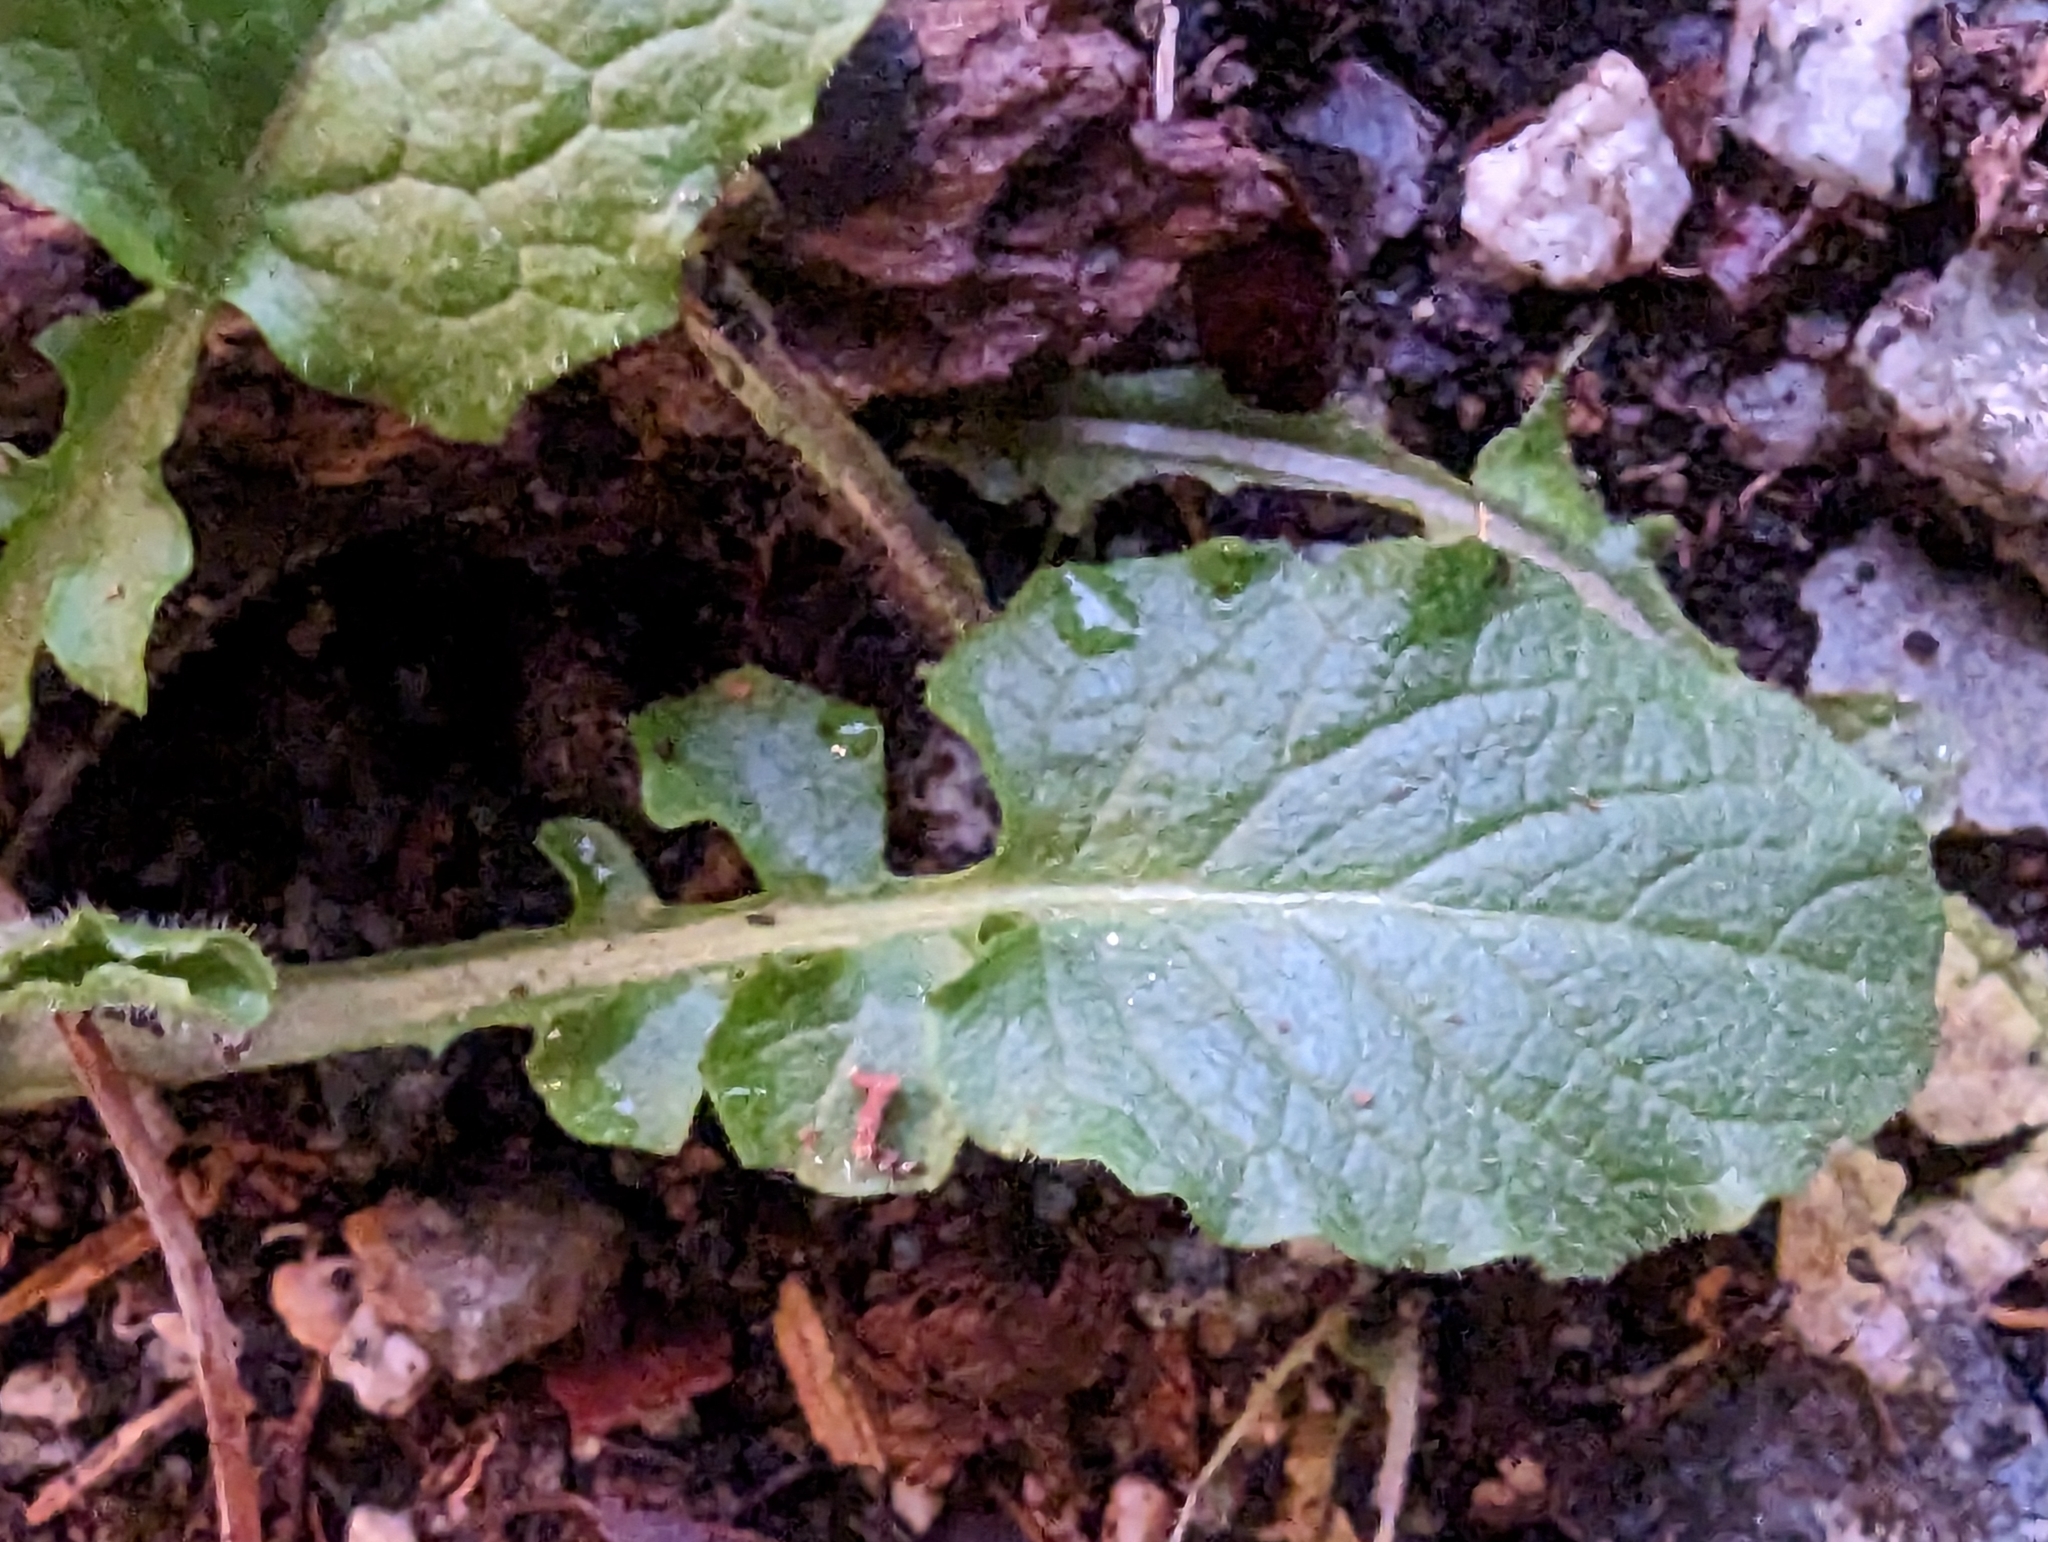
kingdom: Plantae
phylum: Tracheophyta
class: Magnoliopsida
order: Asterales
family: Asteraceae
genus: Lapsana
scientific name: Lapsana communis
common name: Nipplewort
